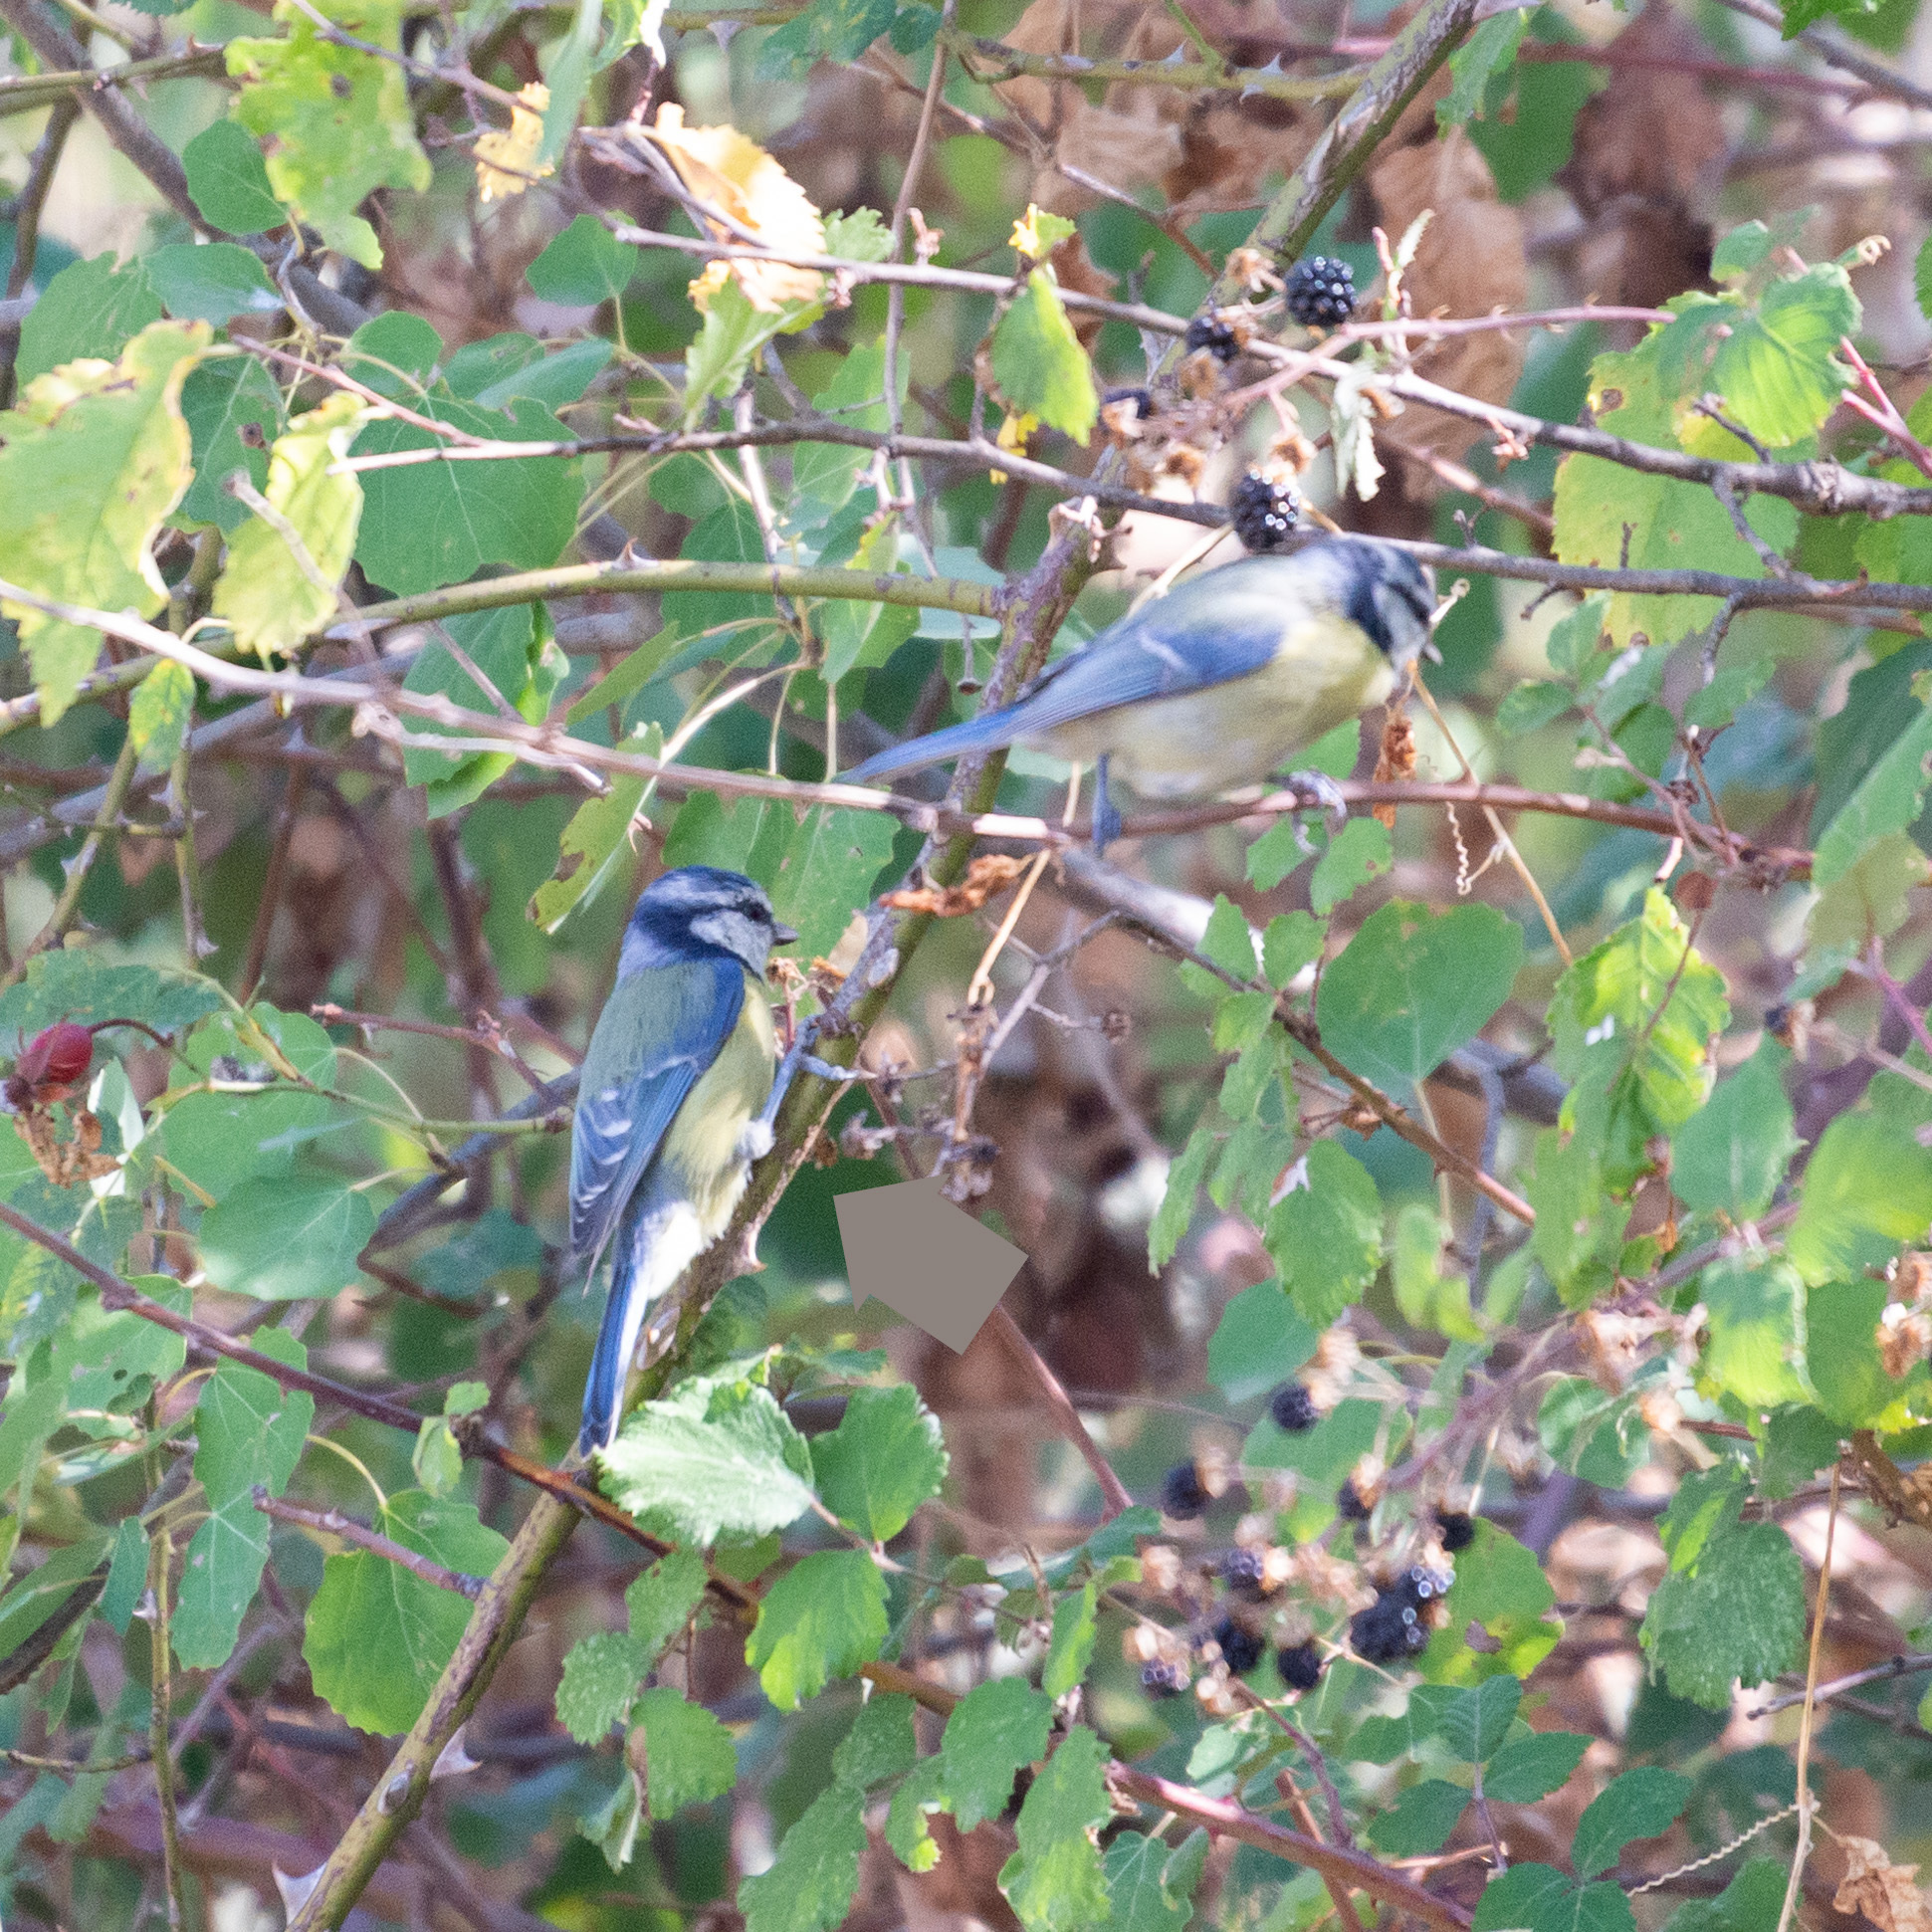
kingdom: Animalia
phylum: Chordata
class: Aves
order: Passeriformes
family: Paridae
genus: Cyanistes
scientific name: Cyanistes caeruleus
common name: Eurasian blue tit
